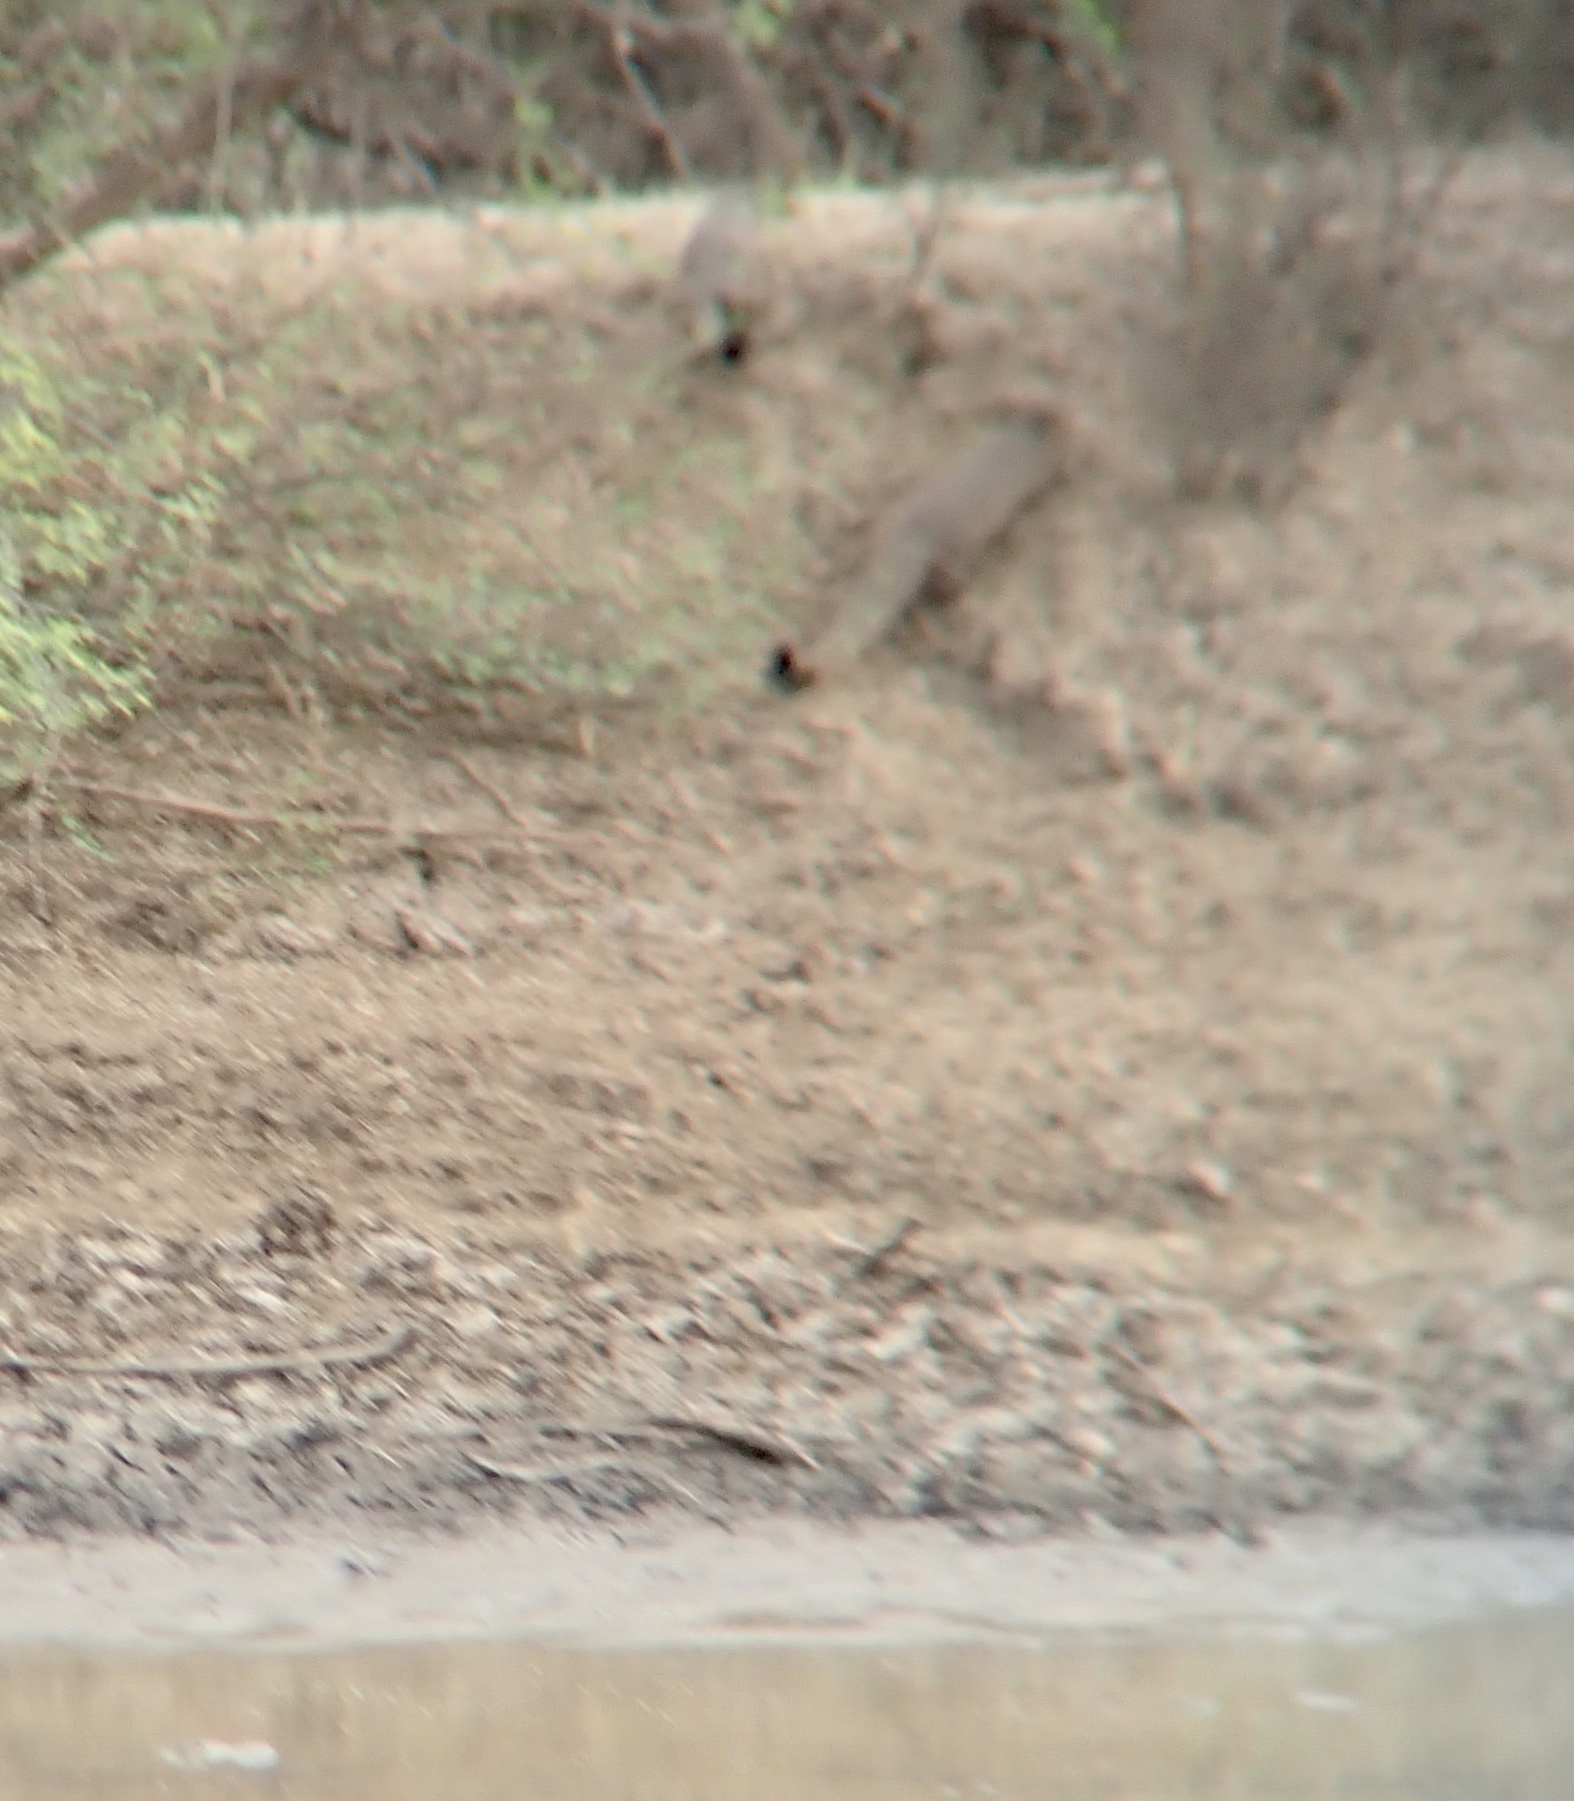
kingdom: Animalia
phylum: Chordata
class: Mammalia
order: Carnivora
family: Herpestidae
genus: Herpestes
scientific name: Herpestes smithii
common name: Ruddy mongoose
